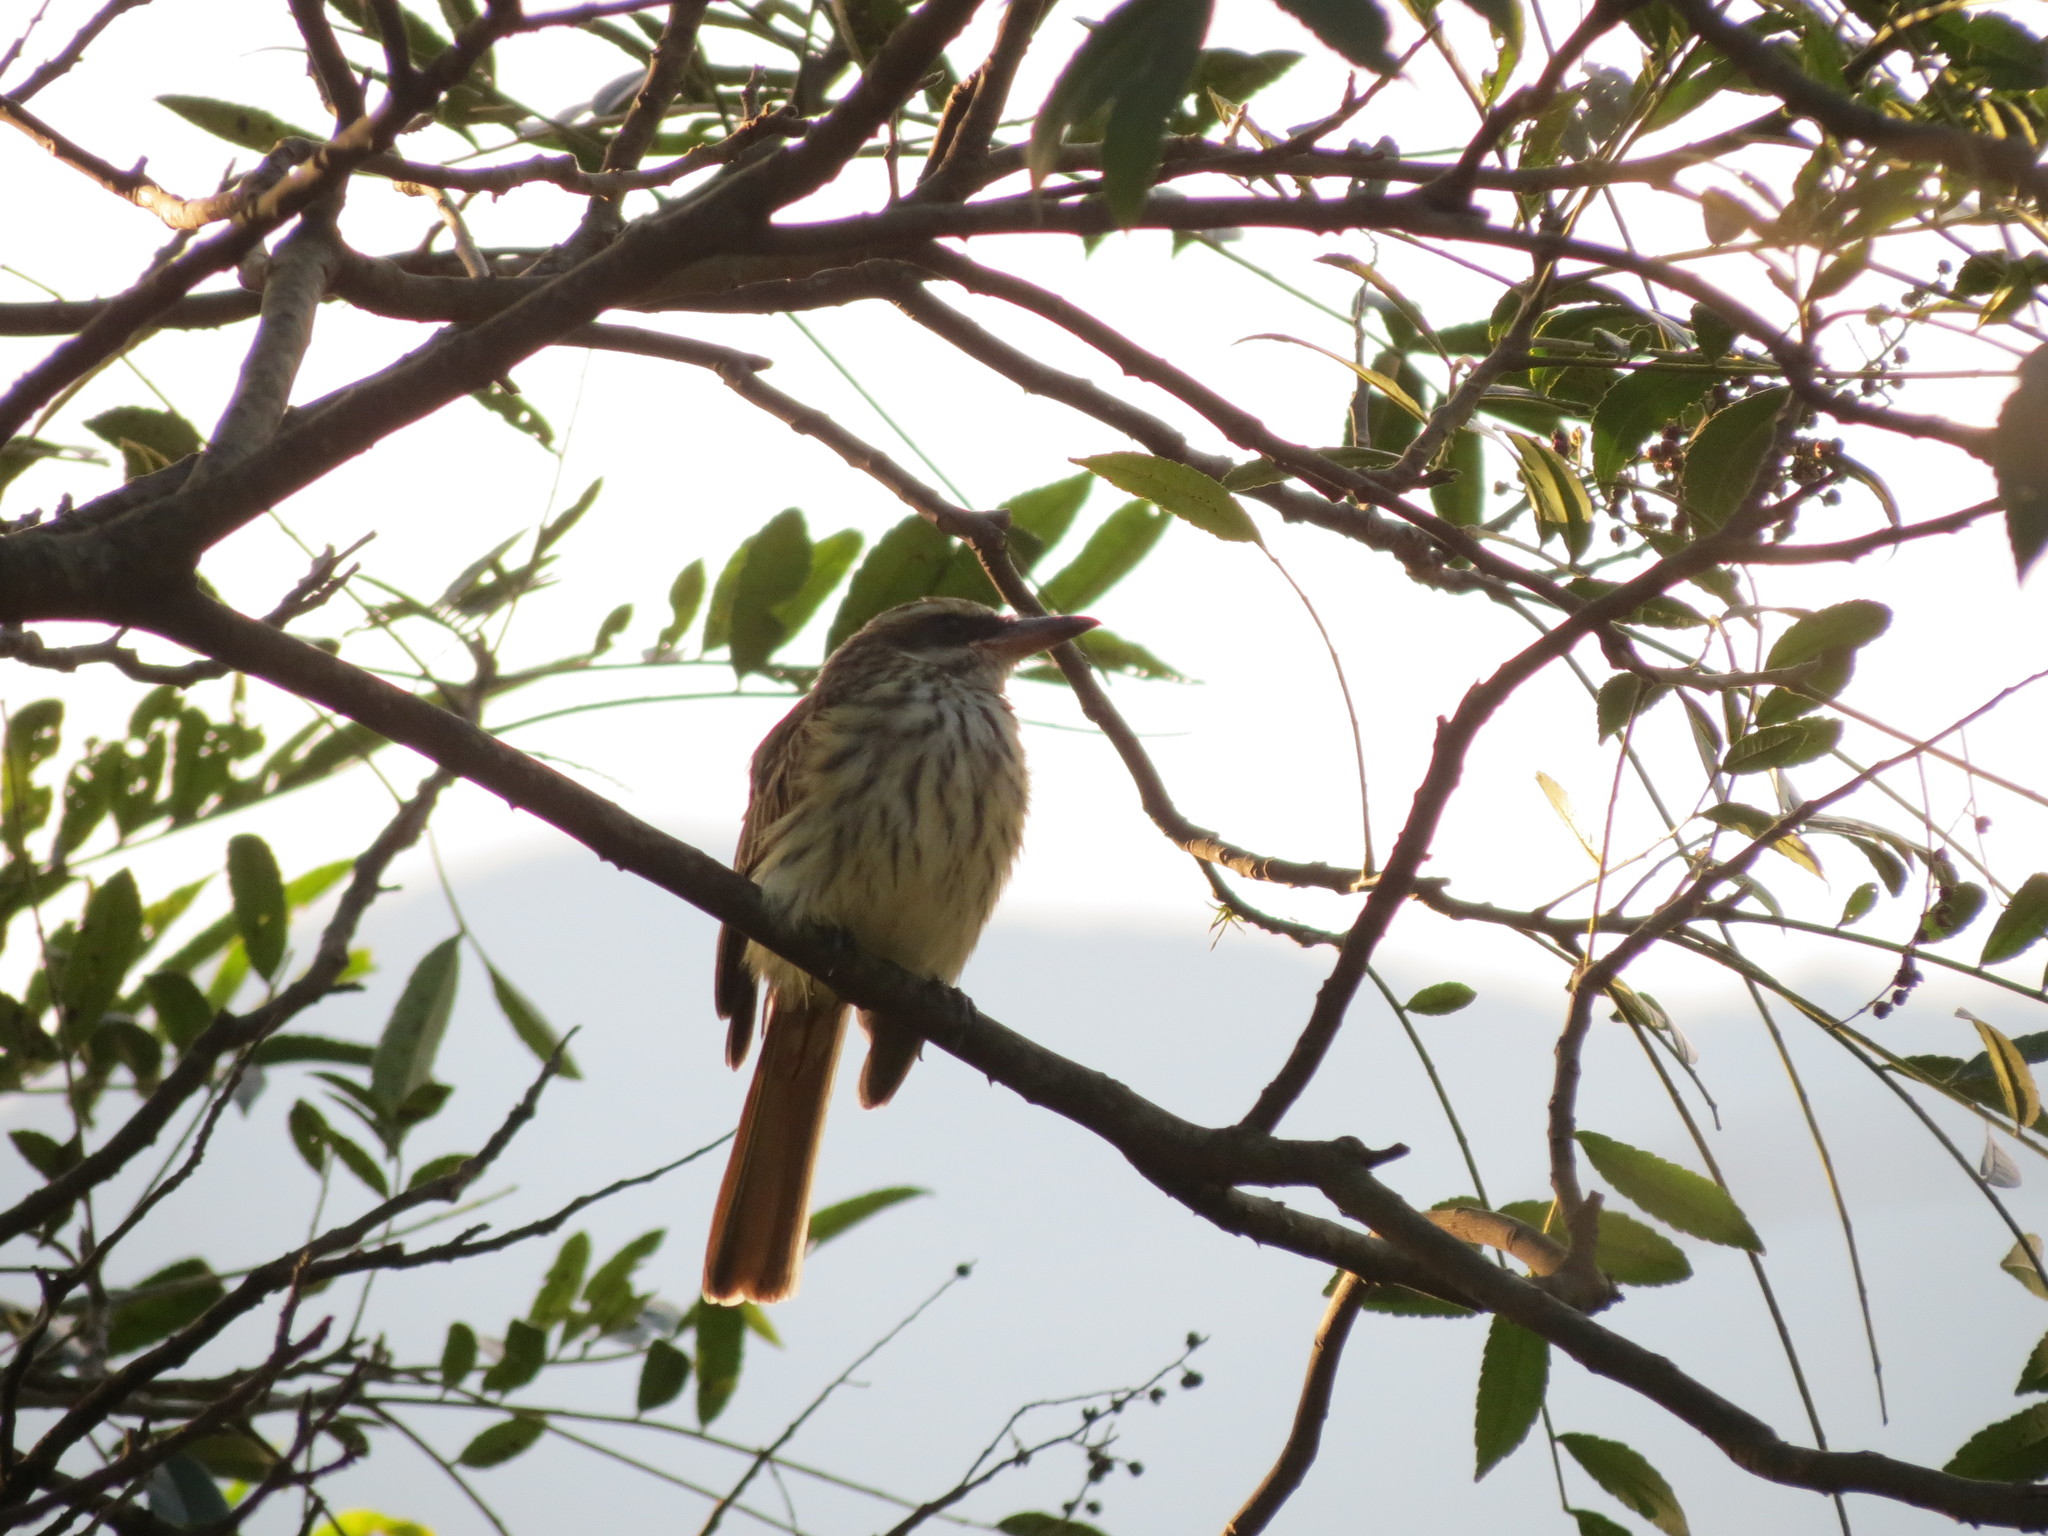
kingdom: Animalia
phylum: Chordata
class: Aves
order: Passeriformes
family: Tyrannidae
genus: Myiodynastes
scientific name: Myiodynastes maculatus
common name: Streaked flycatcher
